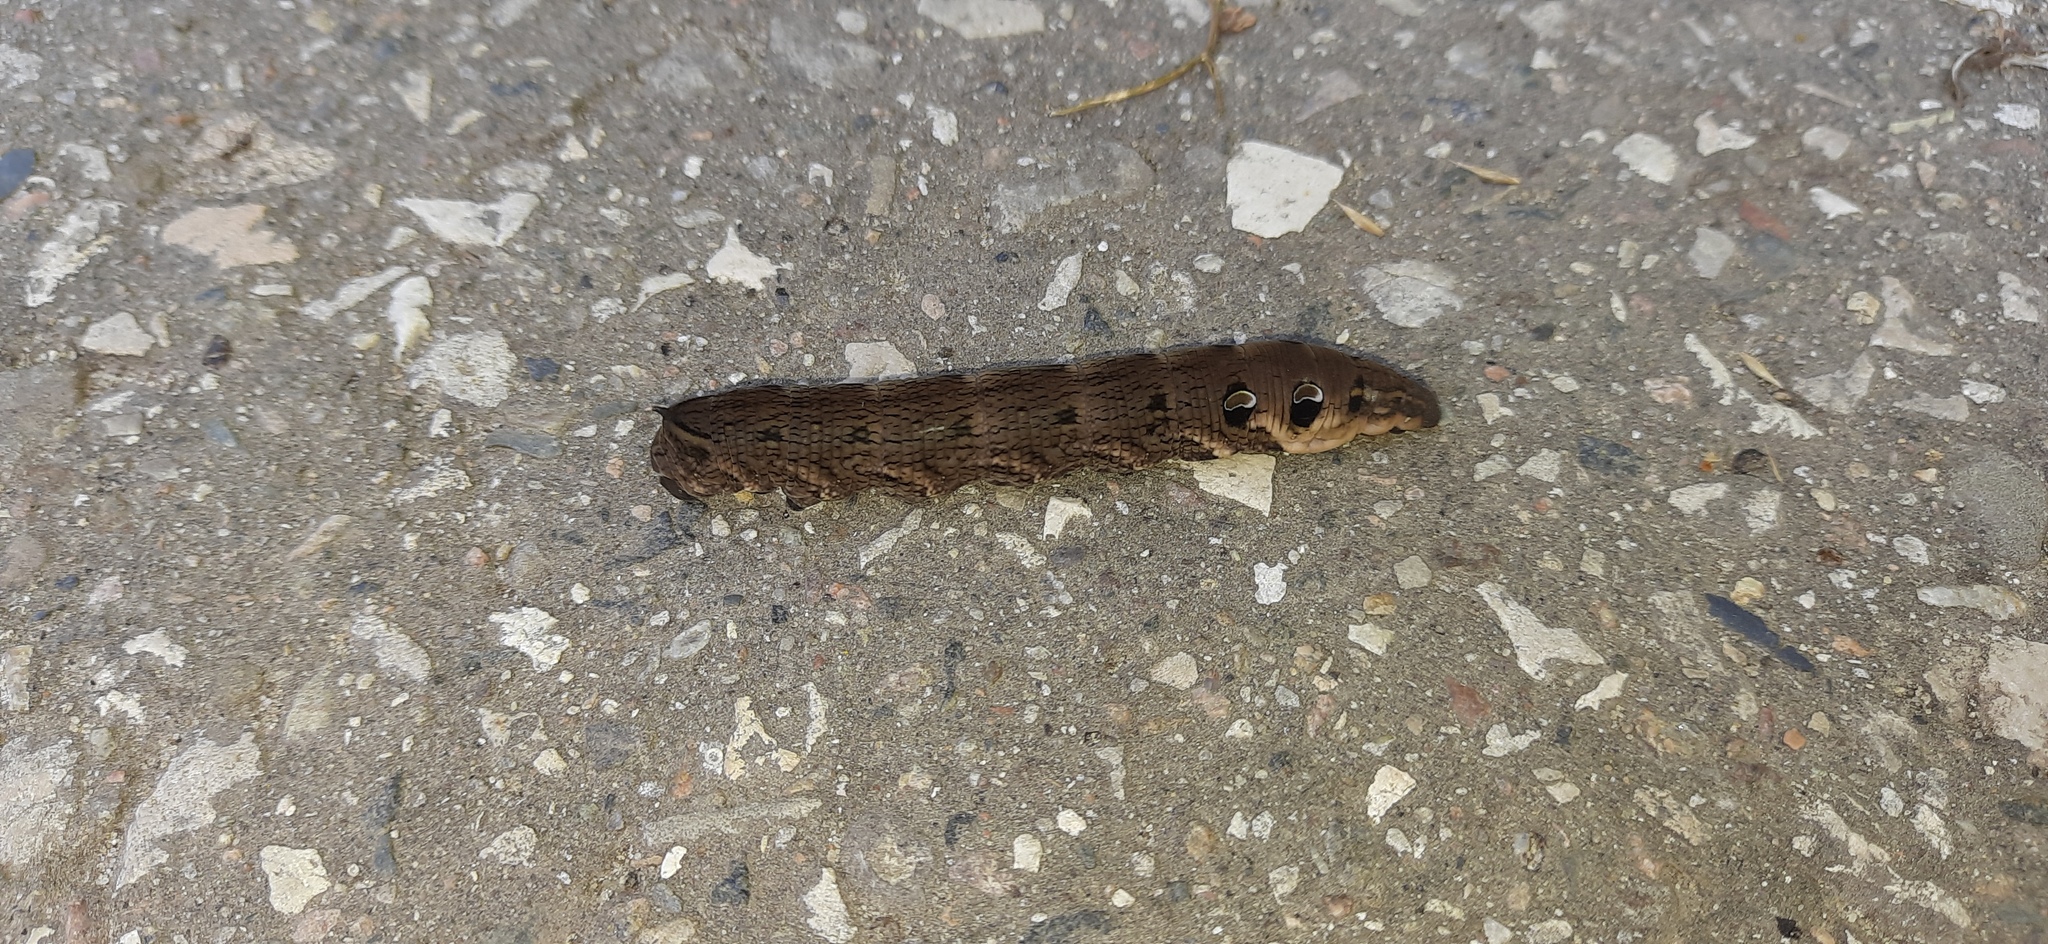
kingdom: Animalia
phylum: Arthropoda
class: Insecta
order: Lepidoptera
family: Sphingidae
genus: Deilephila
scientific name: Deilephila elpenor
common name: Elephant hawk-moth
